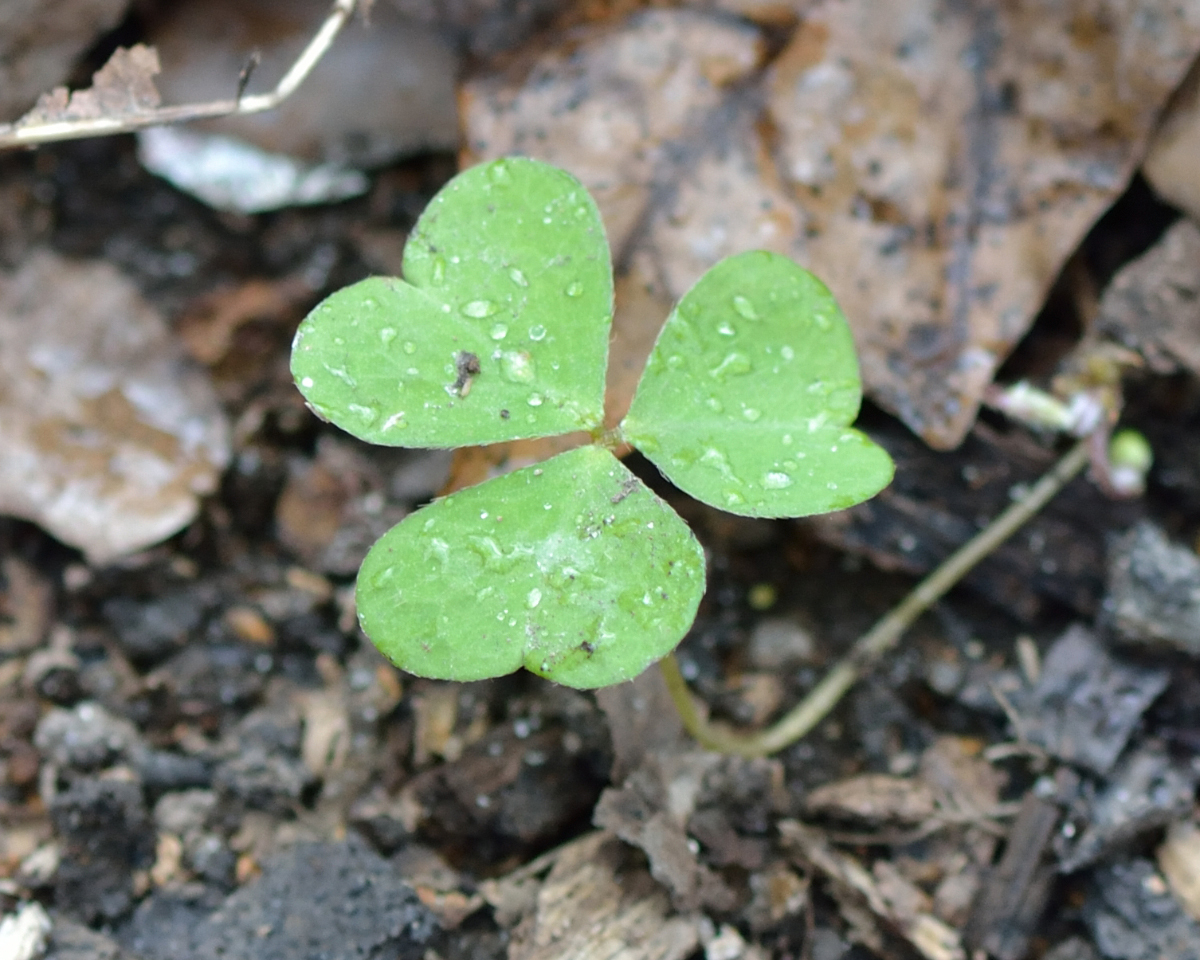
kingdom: Plantae
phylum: Tracheophyta
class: Magnoliopsida
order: Oxalidales
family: Oxalidaceae
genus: Oxalis
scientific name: Oxalis acetosella
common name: Wood-sorrel
